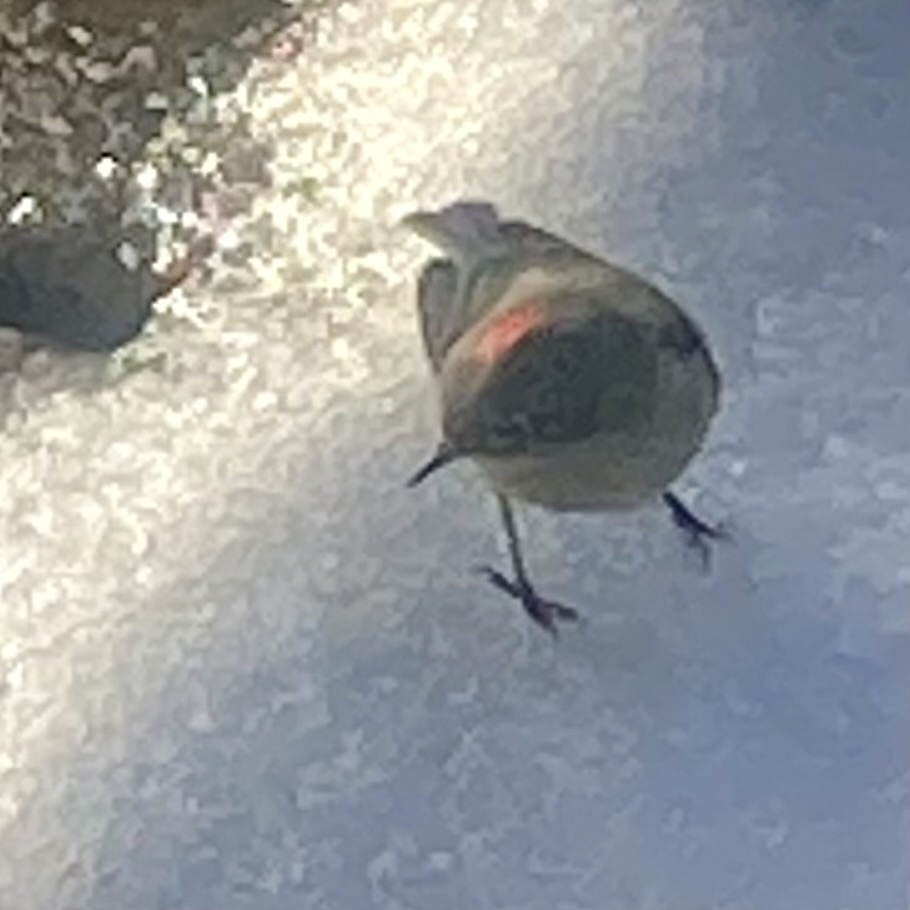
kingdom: Animalia
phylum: Chordata
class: Aves
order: Passeriformes
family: Regulidae
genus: Regulus
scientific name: Regulus calendula
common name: Ruby-crowned kinglet
